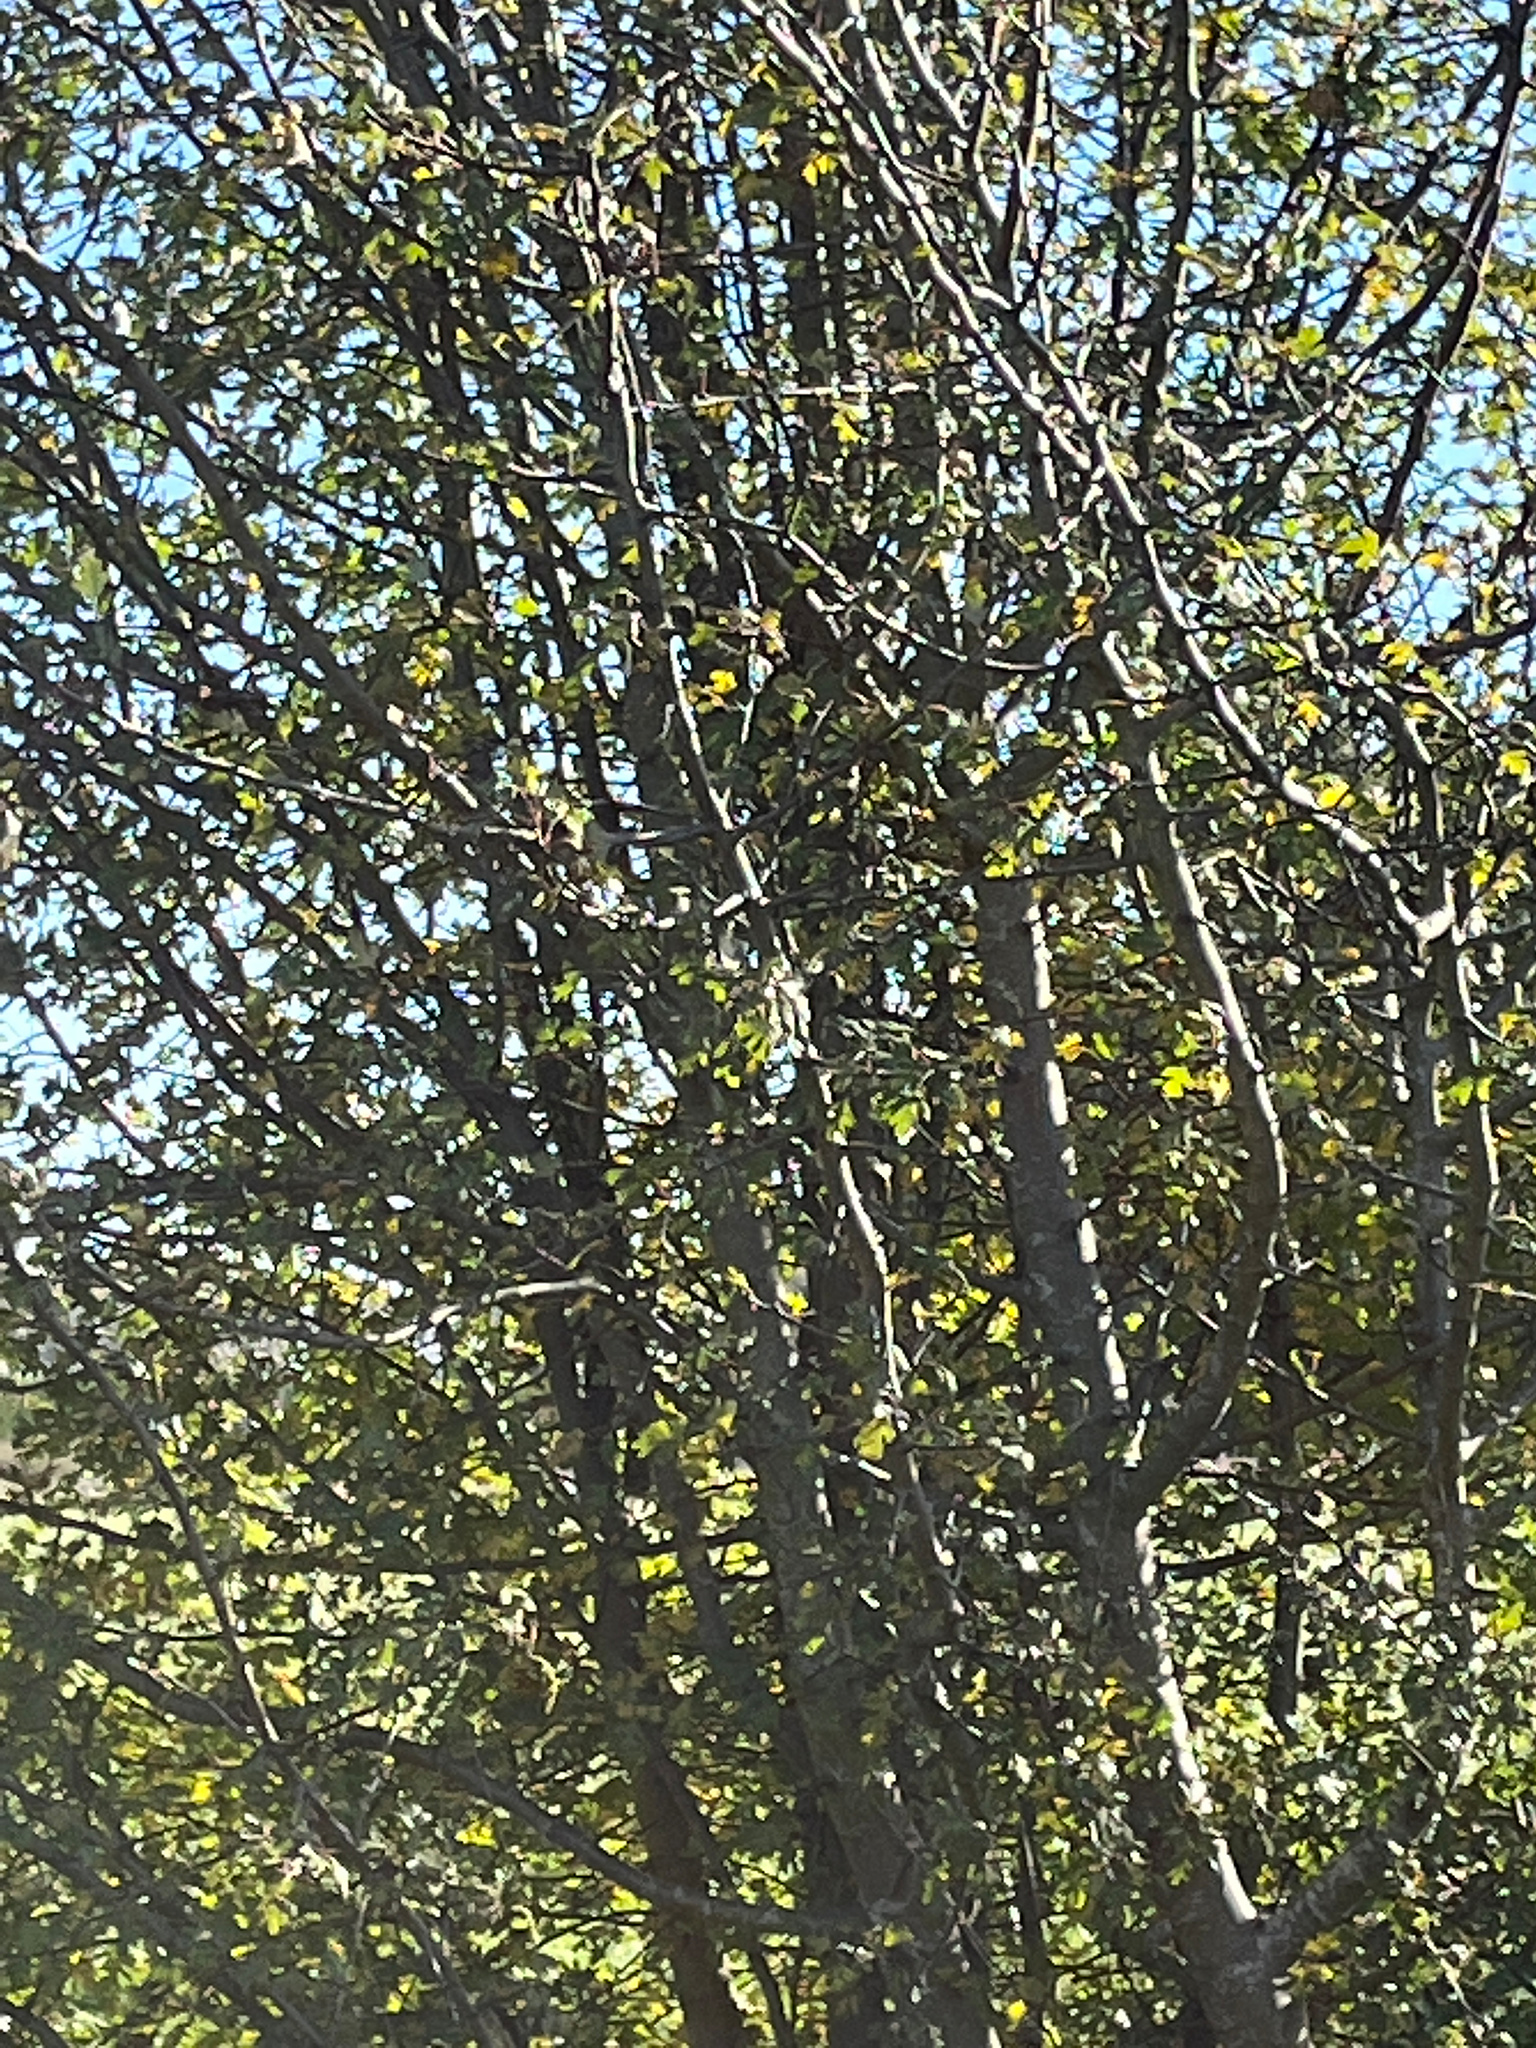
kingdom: Plantae
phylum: Tracheophyta
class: Magnoliopsida
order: Rosales
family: Rosaceae
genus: Crataegus
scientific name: Crataegus monogyna
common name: Hawthorn
